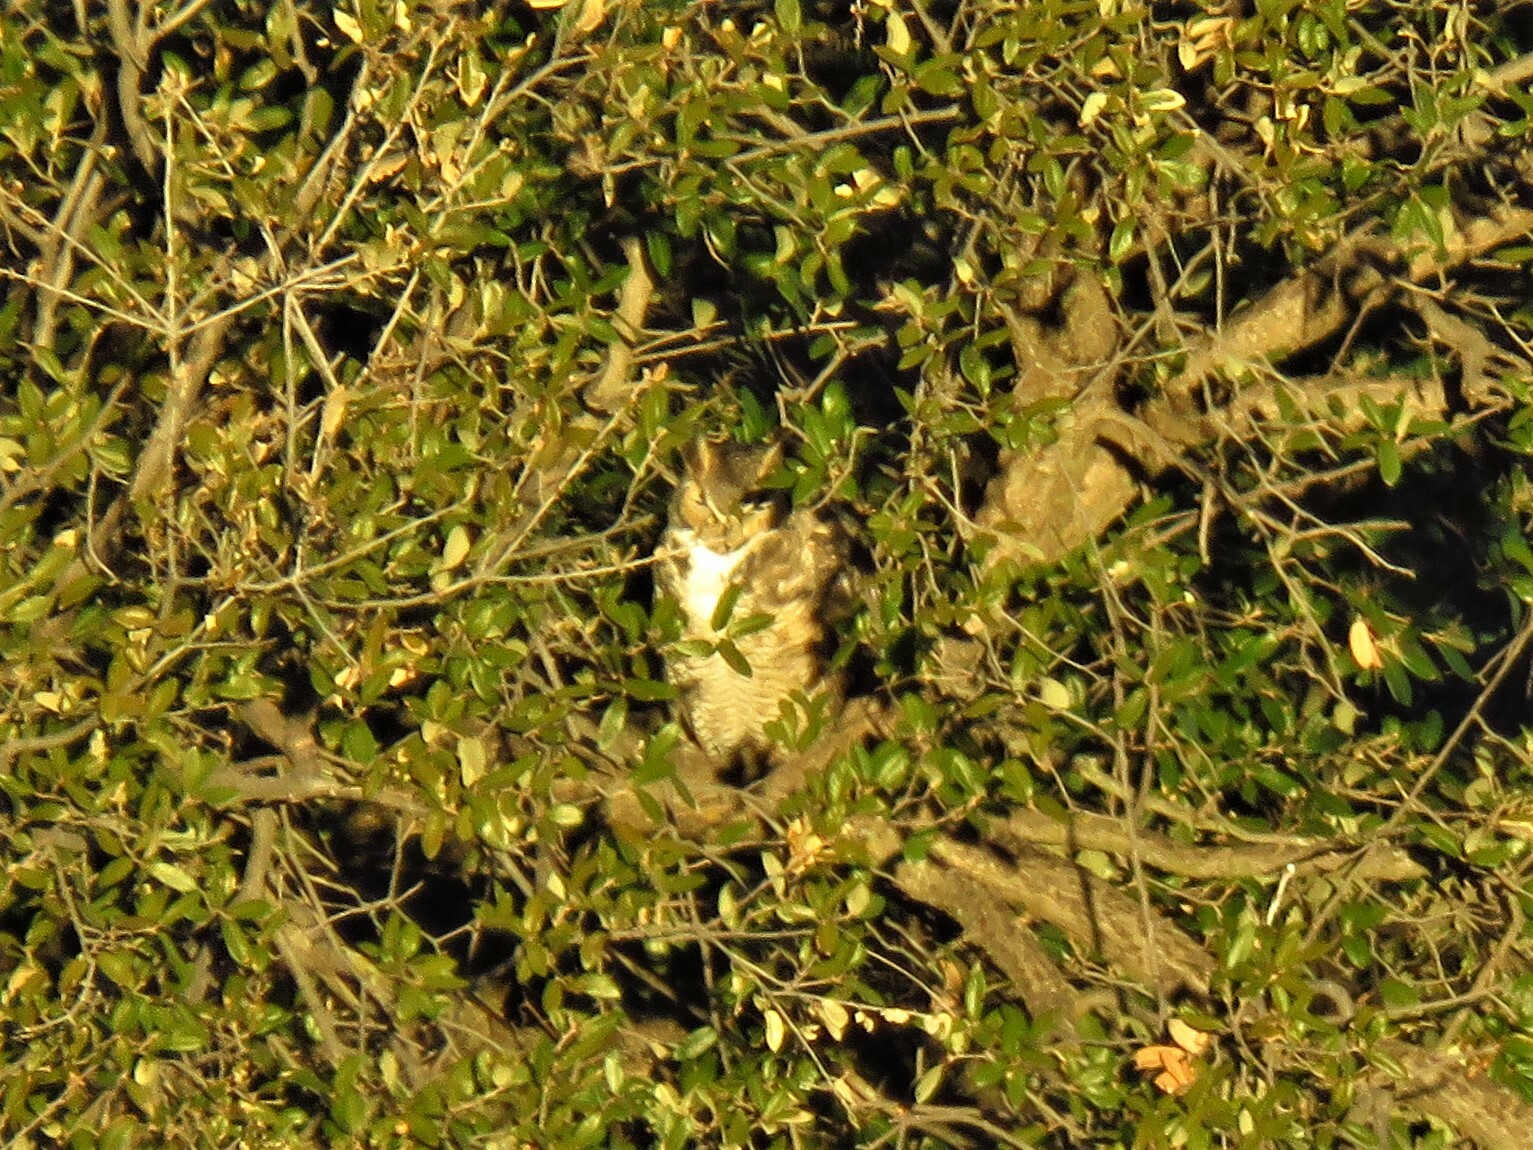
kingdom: Animalia
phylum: Chordata
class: Aves
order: Strigiformes
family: Strigidae
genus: Bubo
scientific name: Bubo virginianus
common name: Great horned owl
